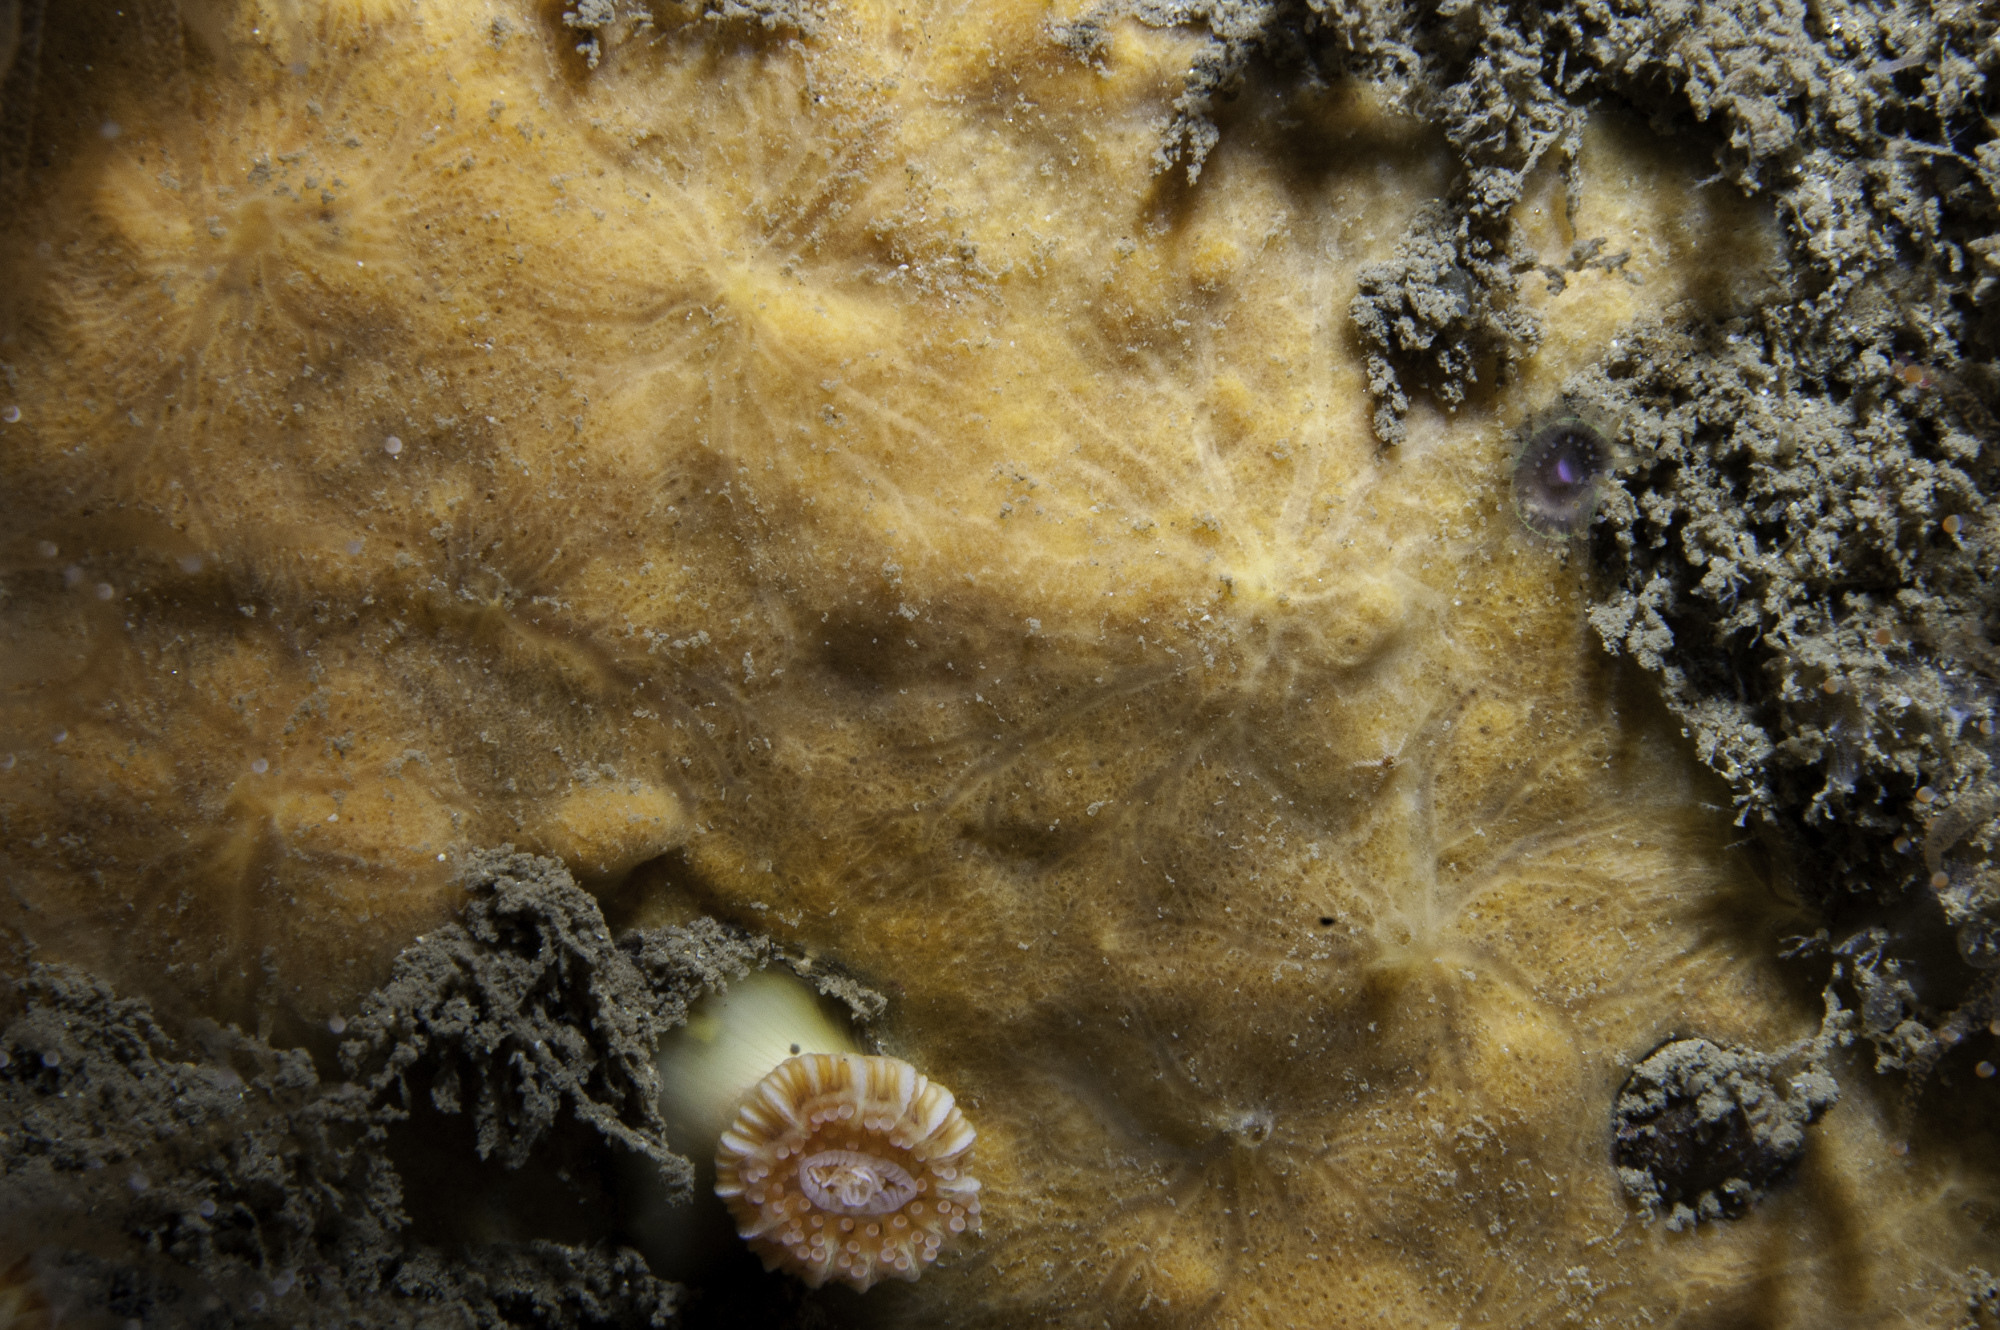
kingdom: Animalia
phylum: Porifera
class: Demospongiae
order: Poecilosclerida
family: Hymedesmiidae
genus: Plocamionida
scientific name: Plocamionida ambigua
